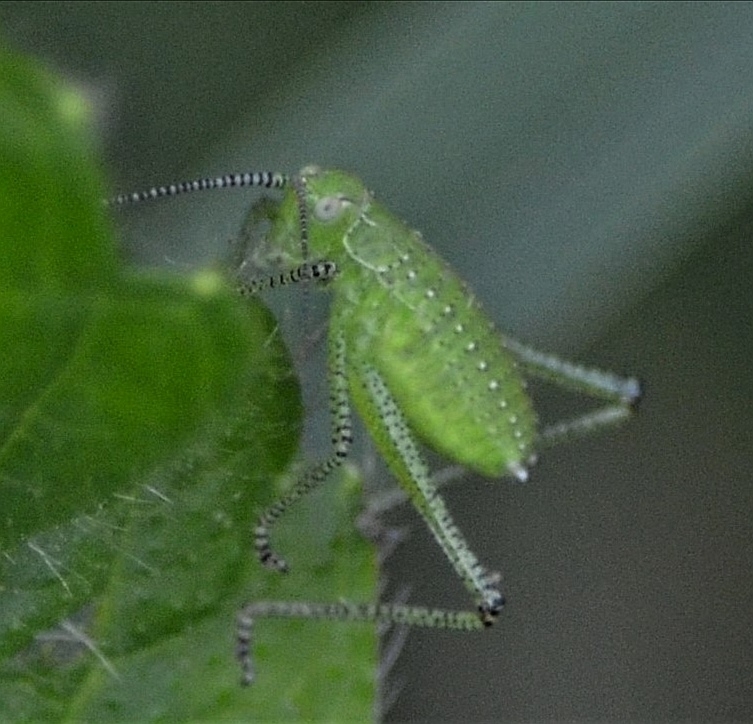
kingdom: Animalia
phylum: Arthropoda
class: Insecta
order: Orthoptera
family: Tettigoniidae
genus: Leptophyes
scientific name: Leptophyes boscii
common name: Balkan speckled bush-cricket
